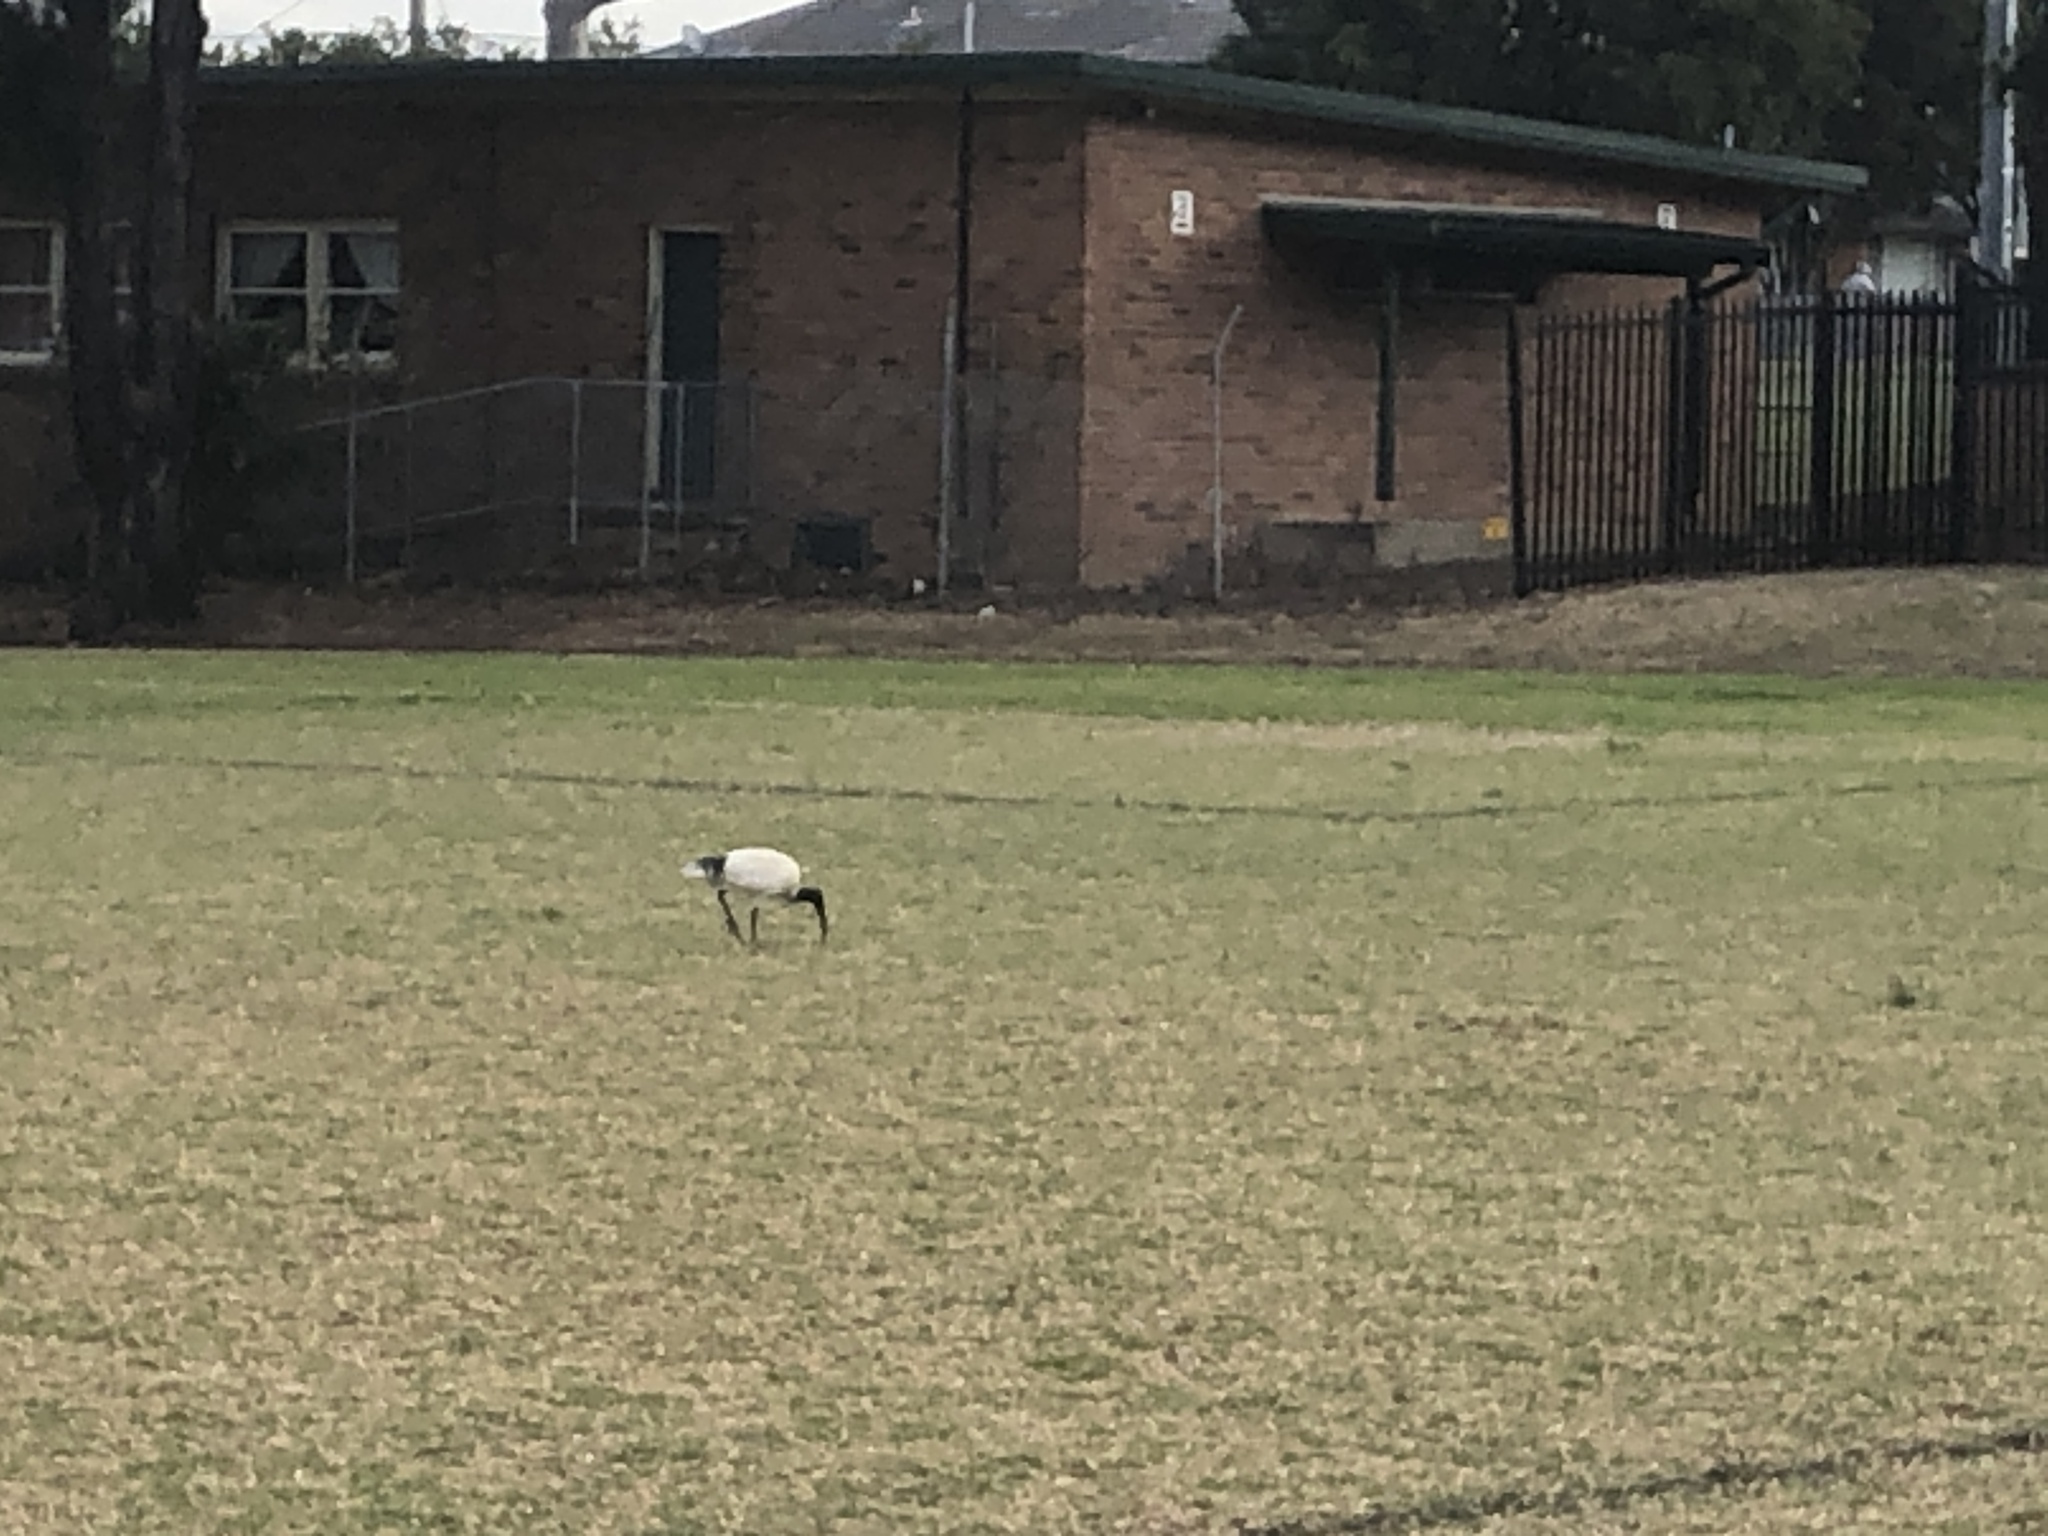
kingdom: Animalia
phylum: Chordata
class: Aves
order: Pelecaniformes
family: Threskiornithidae
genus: Threskiornis
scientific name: Threskiornis molucca
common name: Australian white ibis
